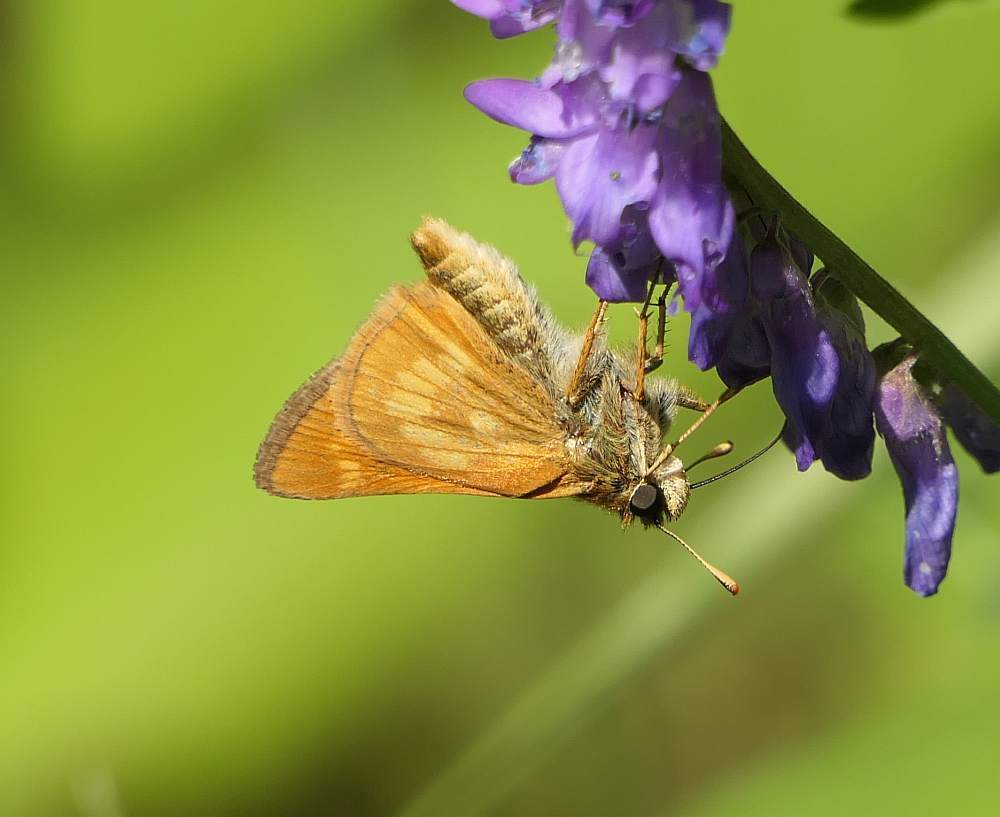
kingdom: Animalia
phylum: Arthropoda
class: Insecta
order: Lepidoptera
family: Hesperiidae
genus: Polites
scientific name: Polites mystic
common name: Long dash
